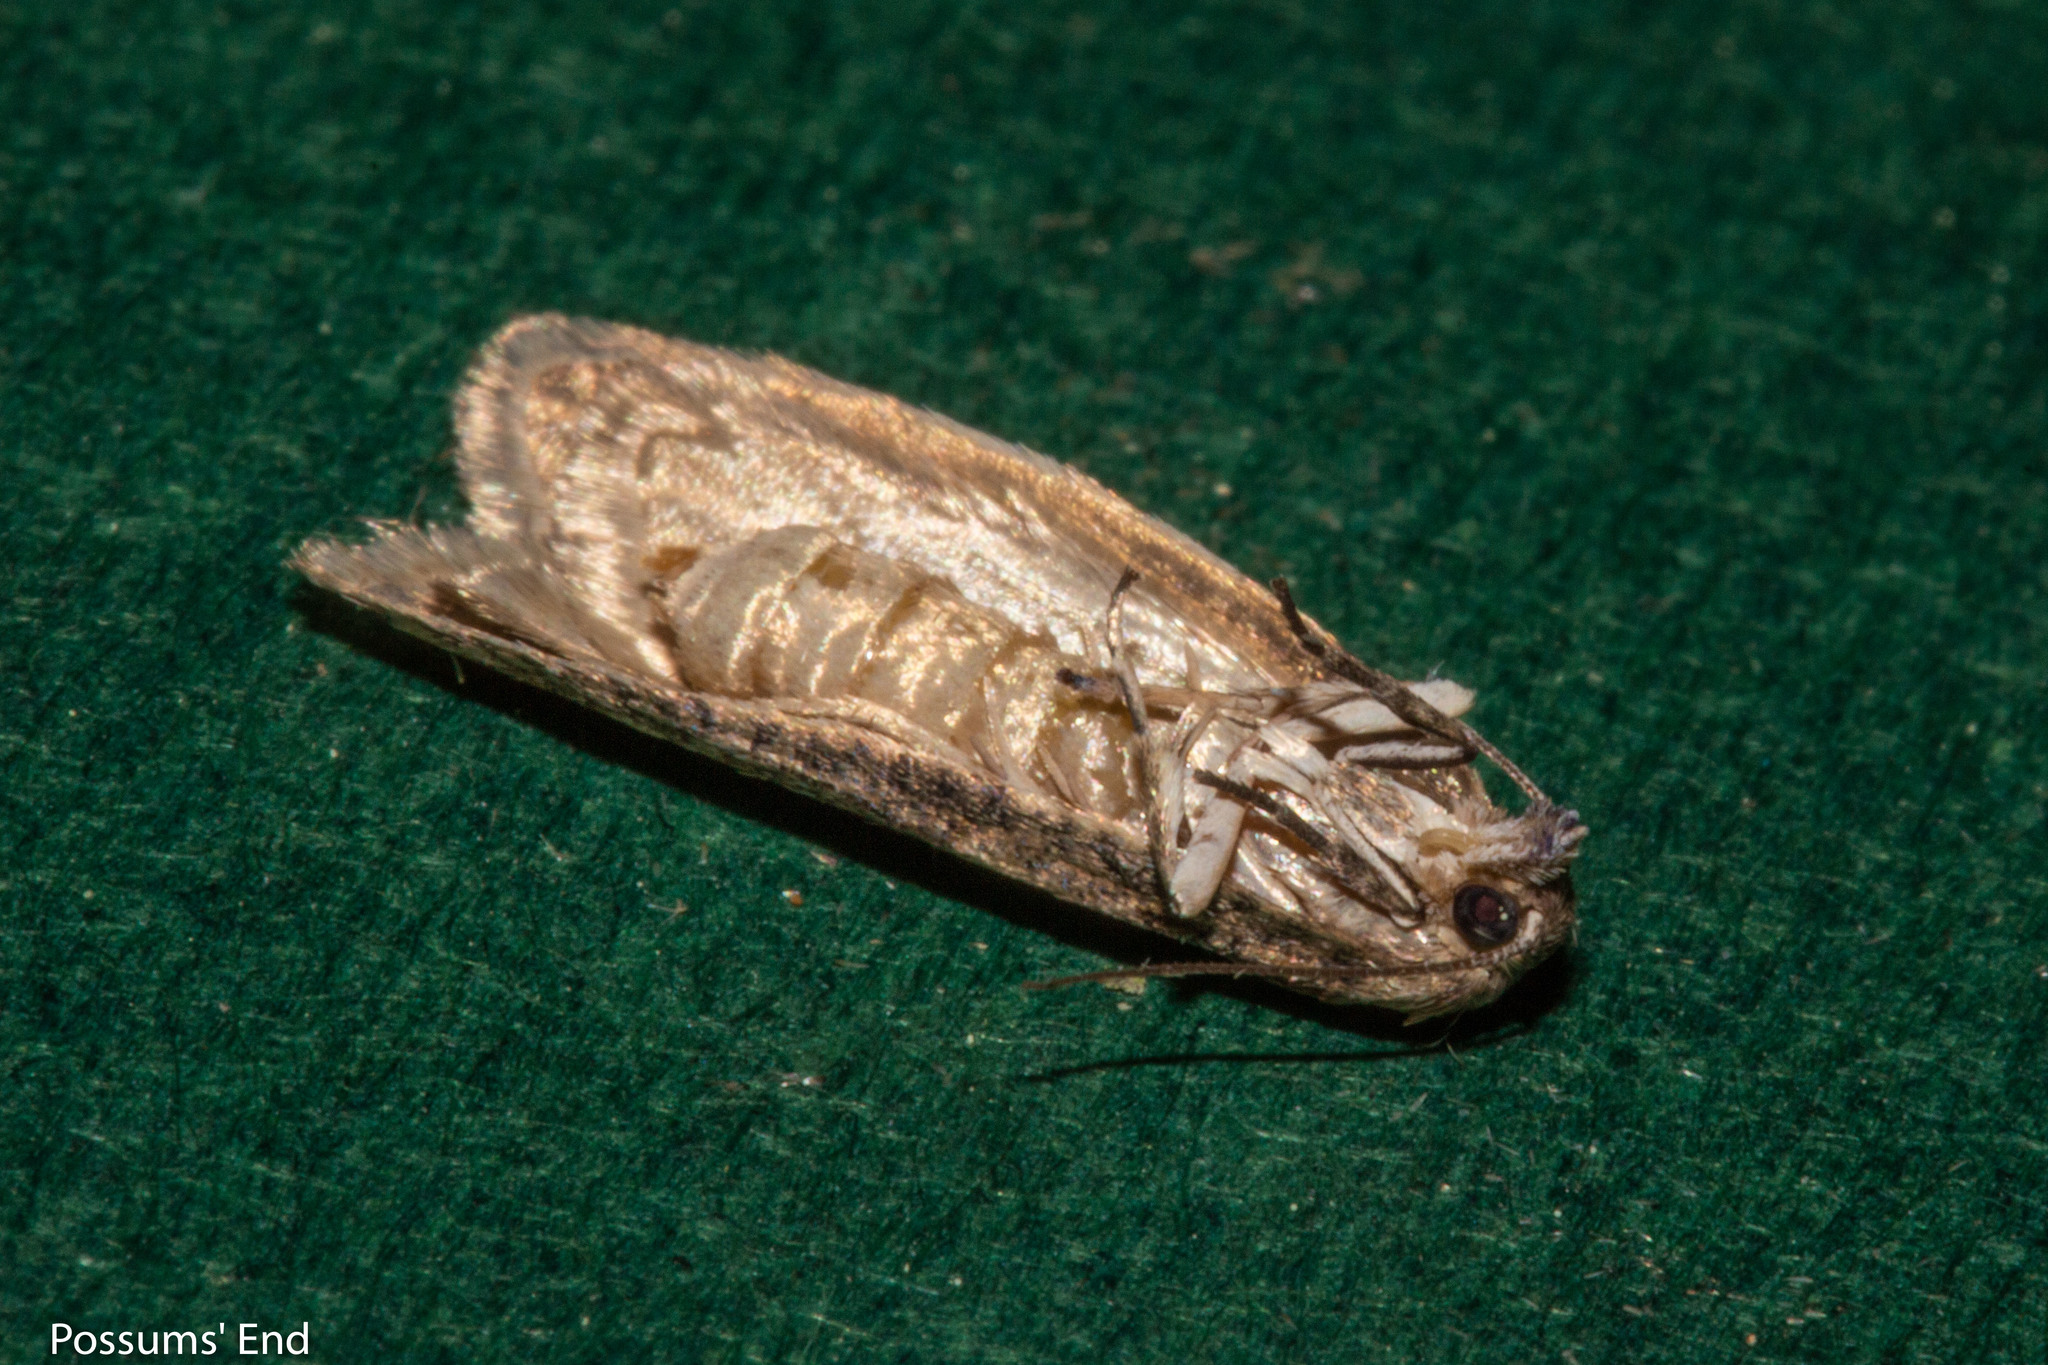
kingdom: Animalia
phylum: Arthropoda
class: Insecta
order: Lepidoptera
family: Tortricidae
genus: Prothelymna
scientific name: Prothelymna antiquana
